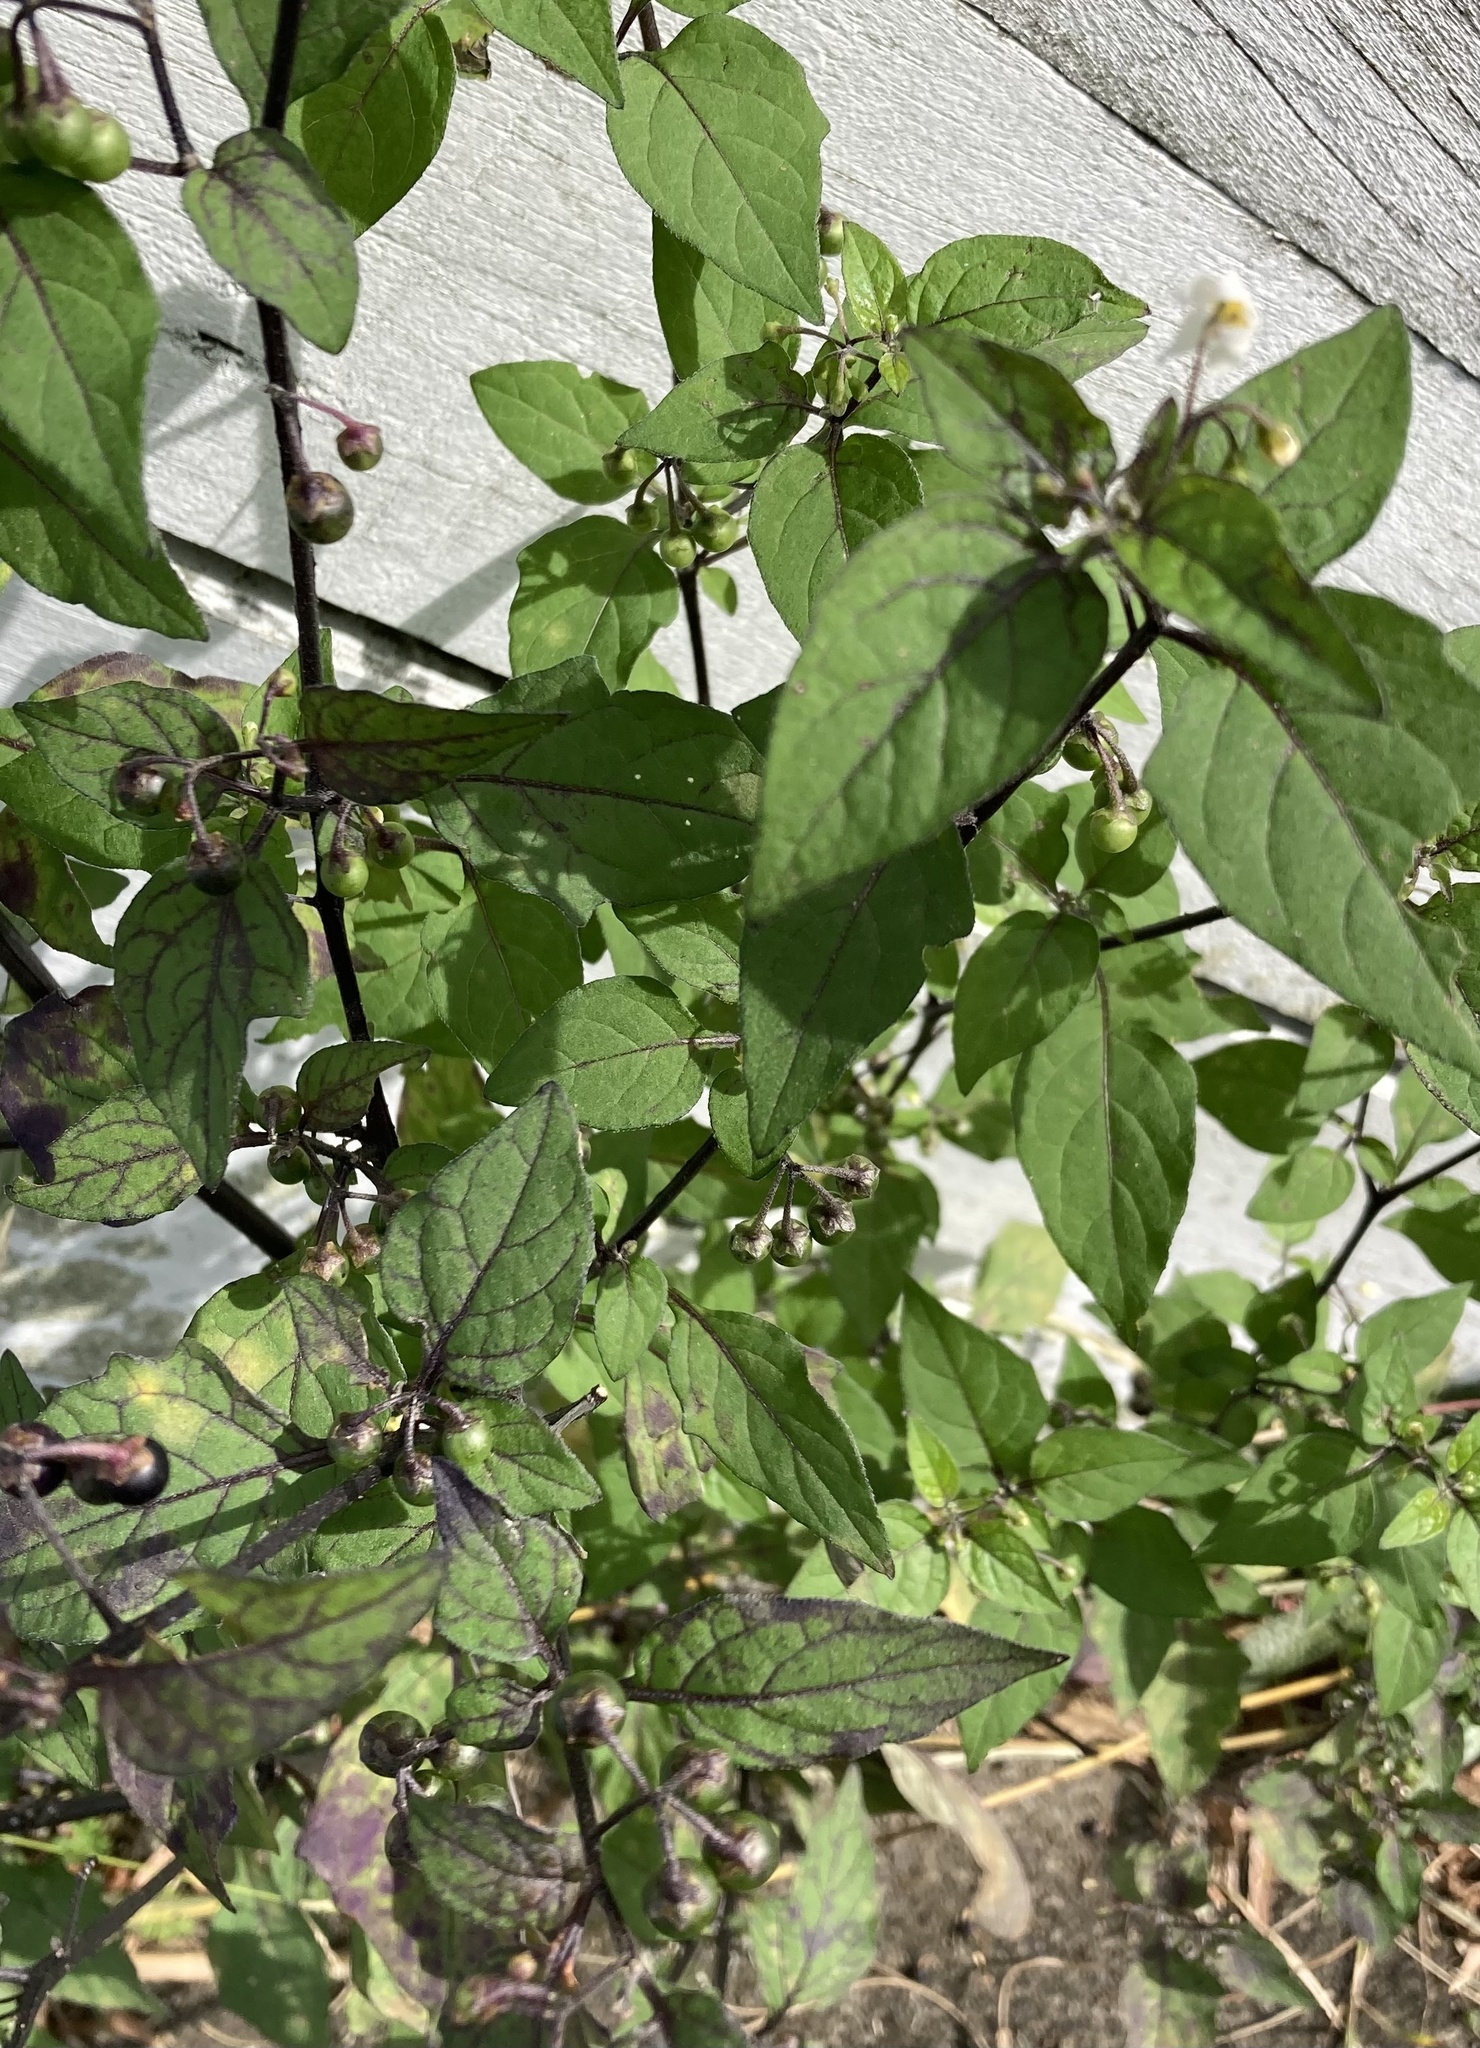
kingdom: Plantae
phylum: Tracheophyta
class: Magnoliopsida
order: Solanales
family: Solanaceae
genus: Solanum
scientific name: Solanum nigrum
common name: Black nightshade
